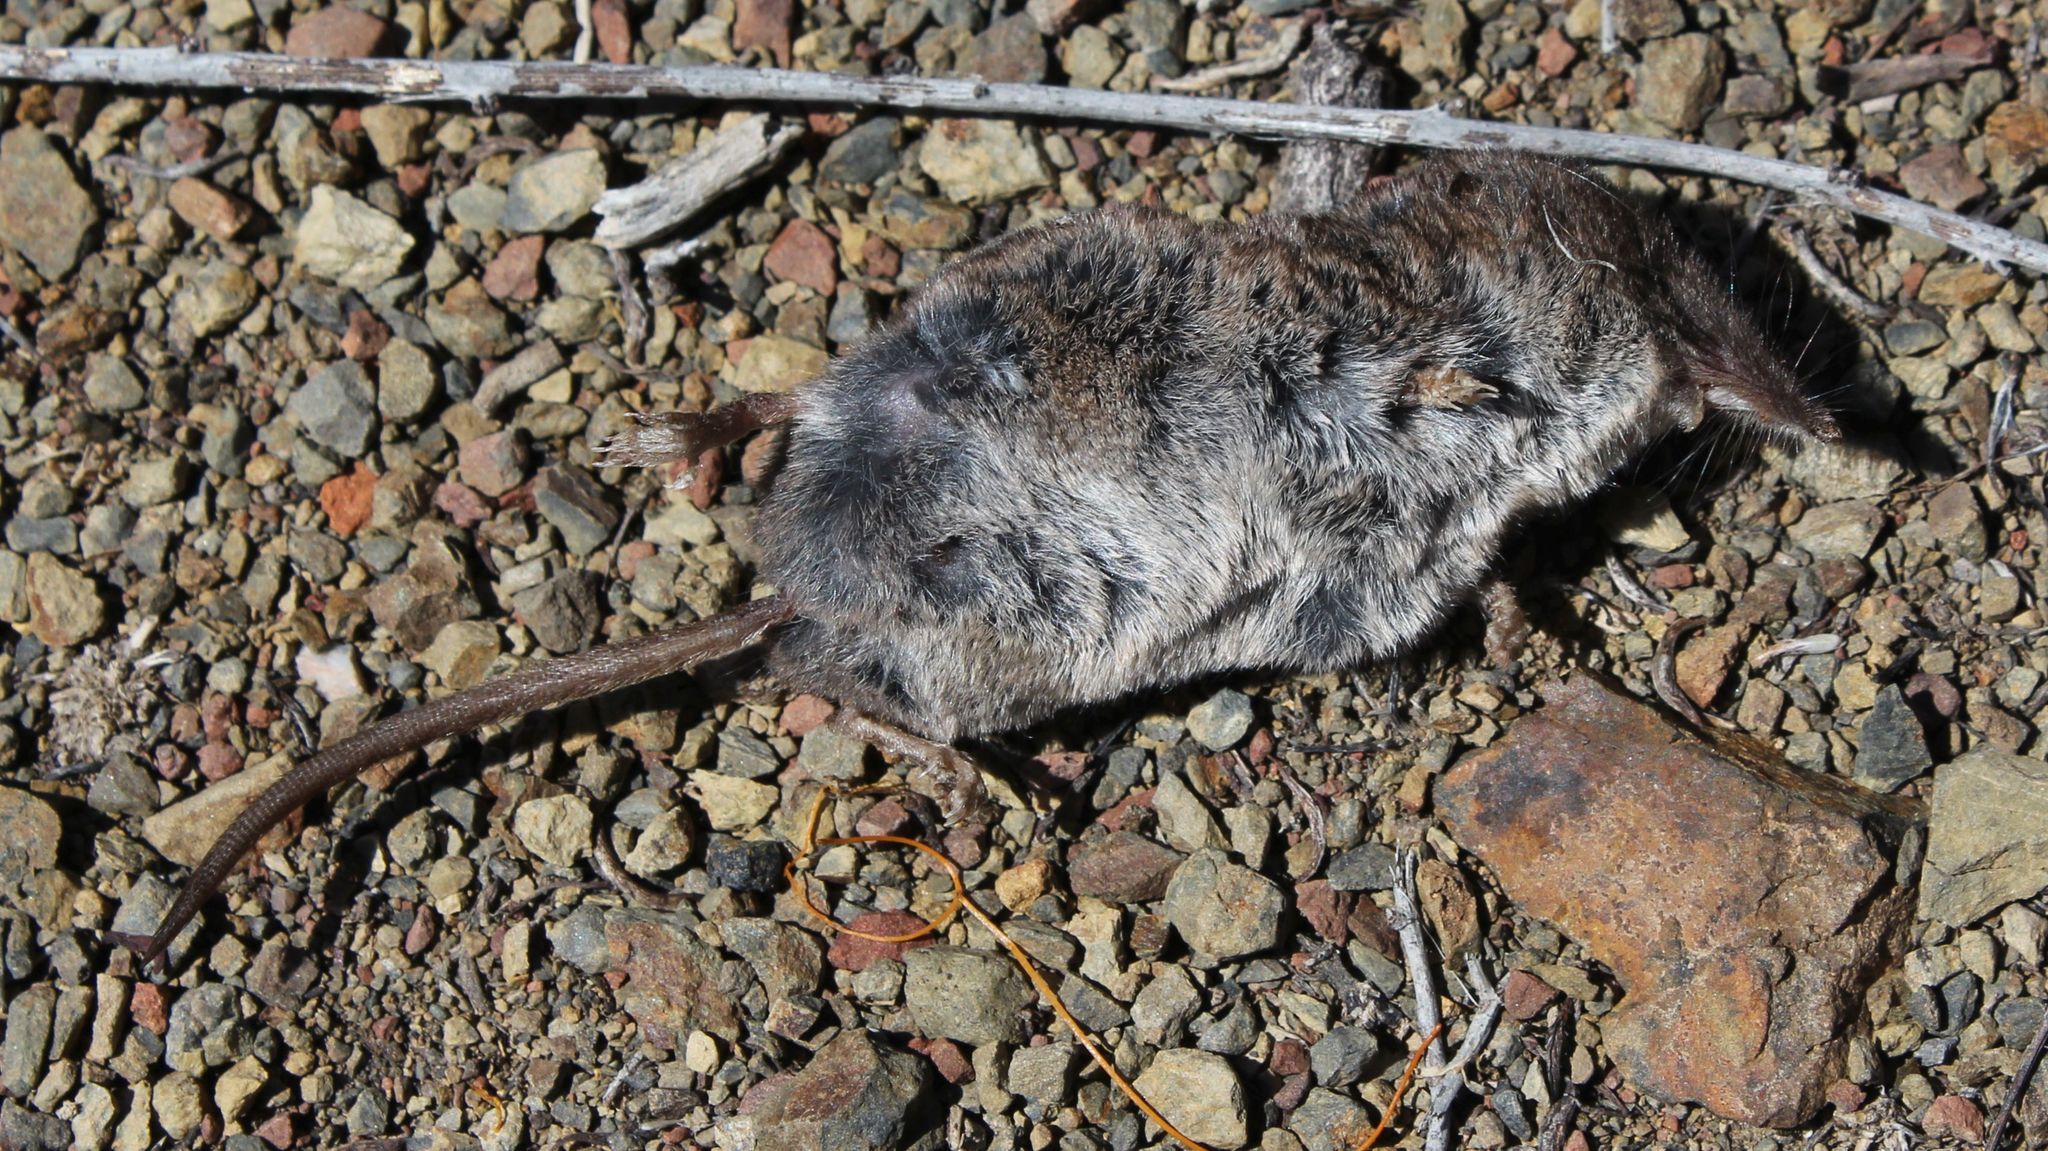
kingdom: Animalia
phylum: Chordata
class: Mammalia
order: Soricomorpha
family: Soricidae
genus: Sorex
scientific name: Sorex ornatus
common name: Ornate shrew
